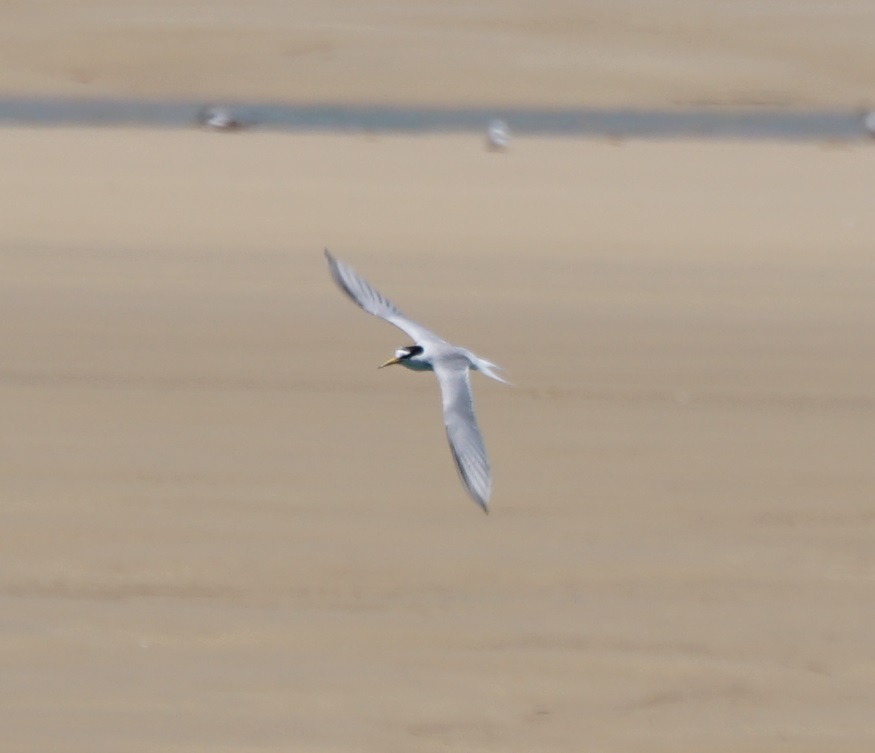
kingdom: Animalia
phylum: Chordata
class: Aves
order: Charadriiformes
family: Laridae
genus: Sternula
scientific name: Sternula albifrons
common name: Little tern
